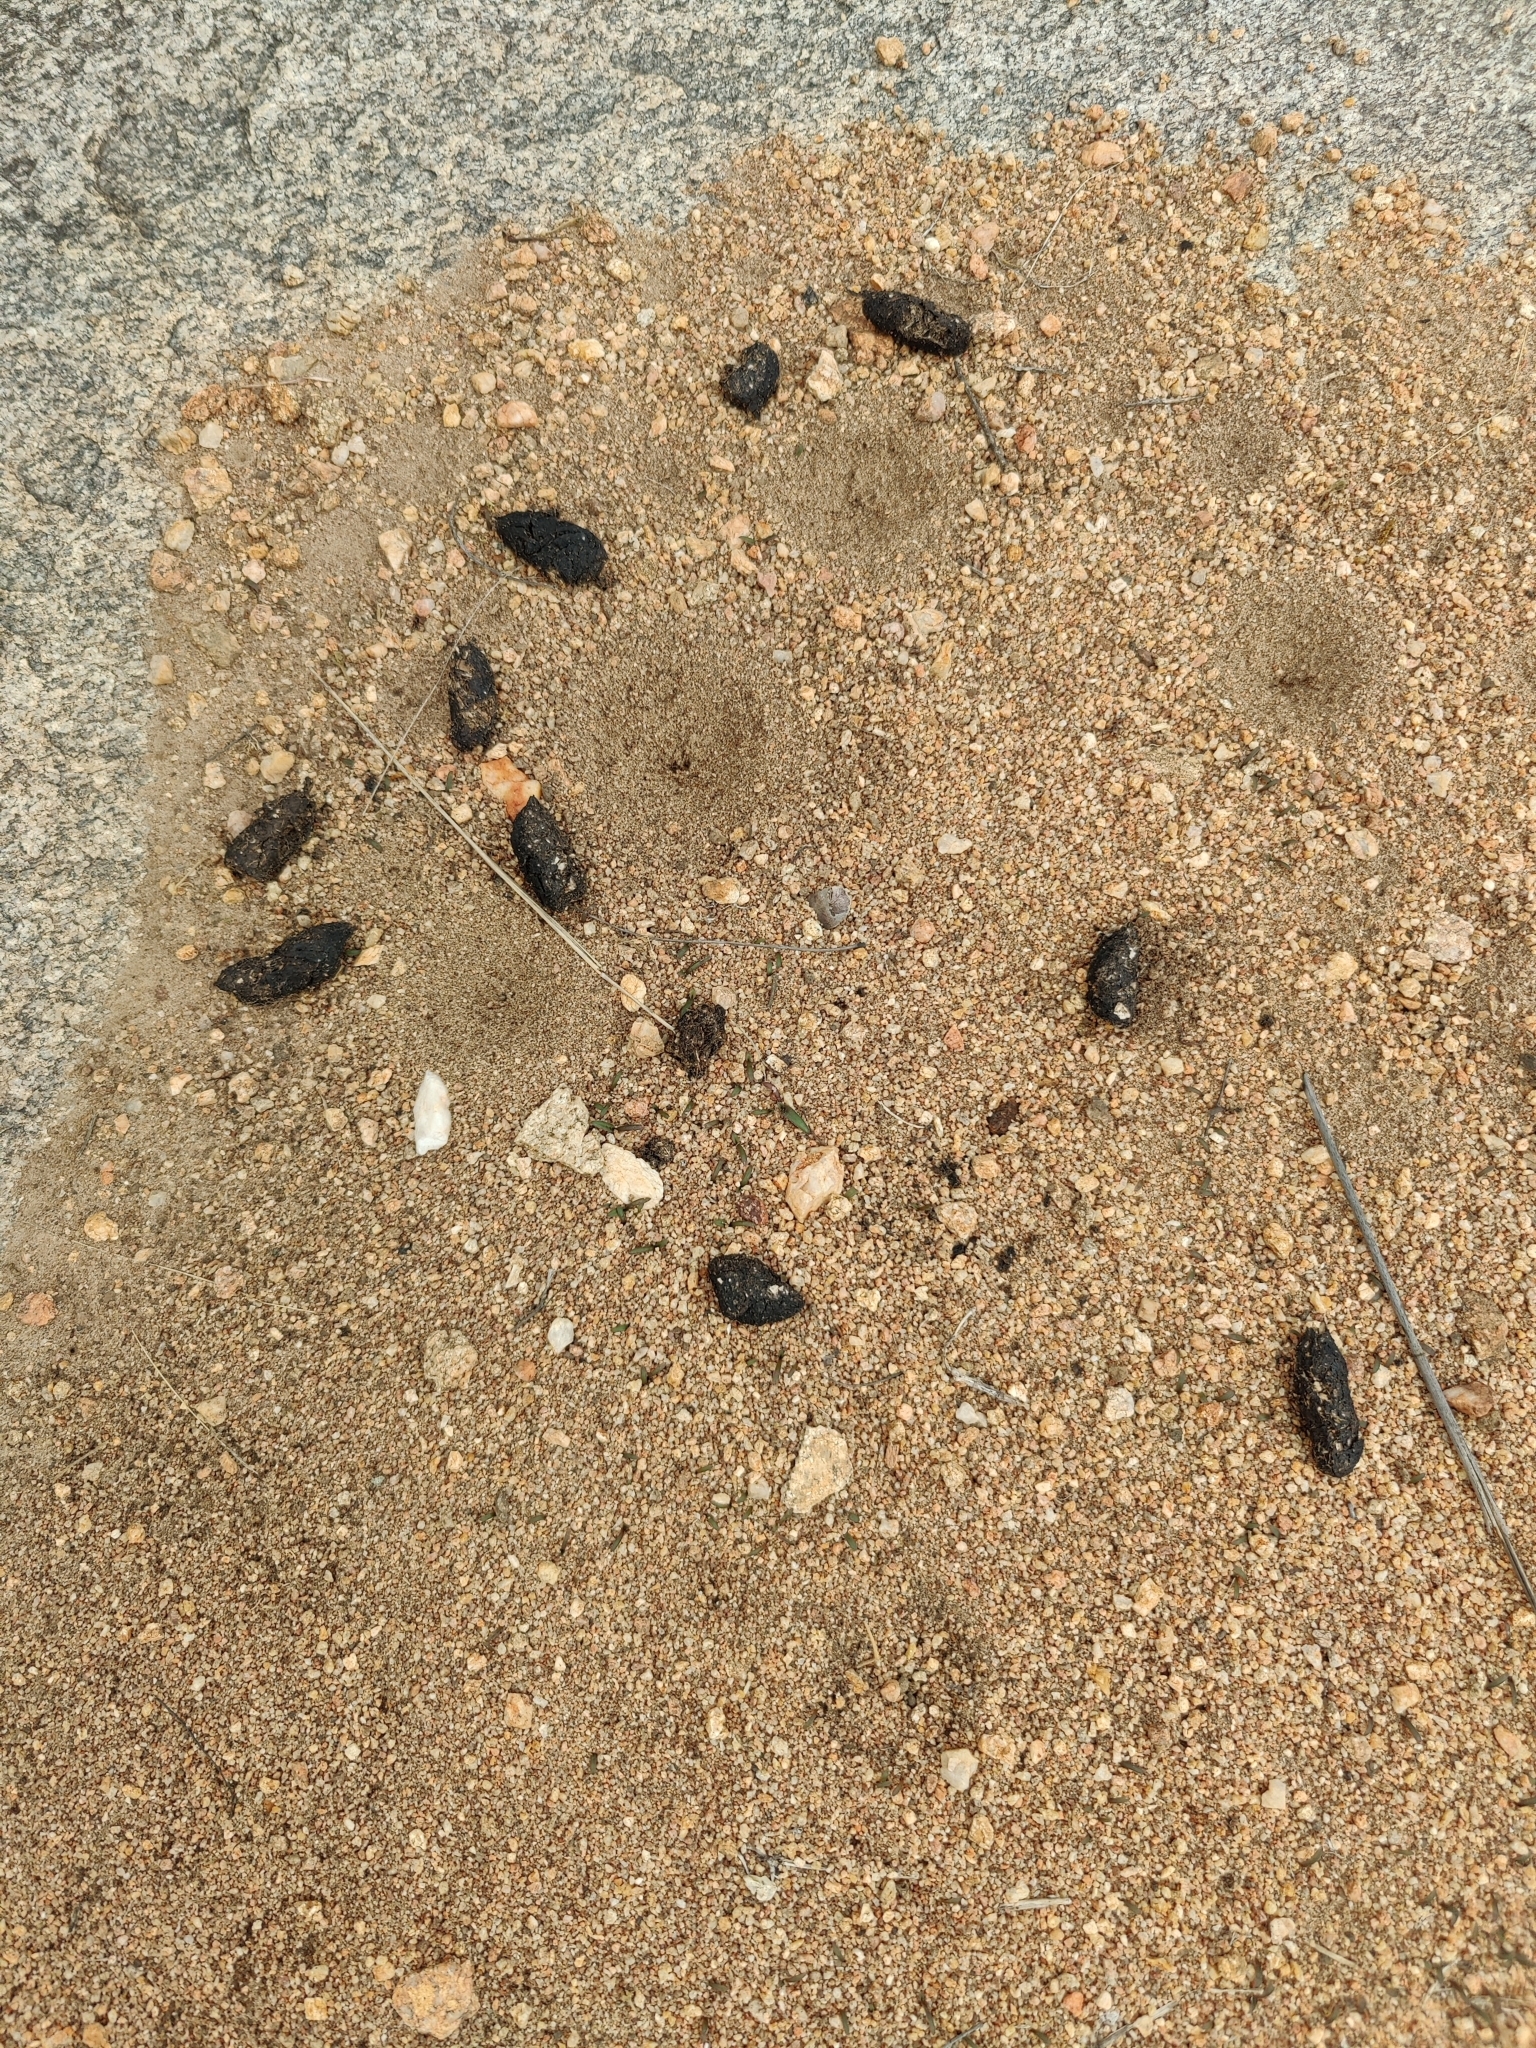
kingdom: Animalia
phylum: Chordata
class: Mammalia
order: Rodentia
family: Hystricidae
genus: Hystrix
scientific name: Hystrix indica
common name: Indian crested porcupine
